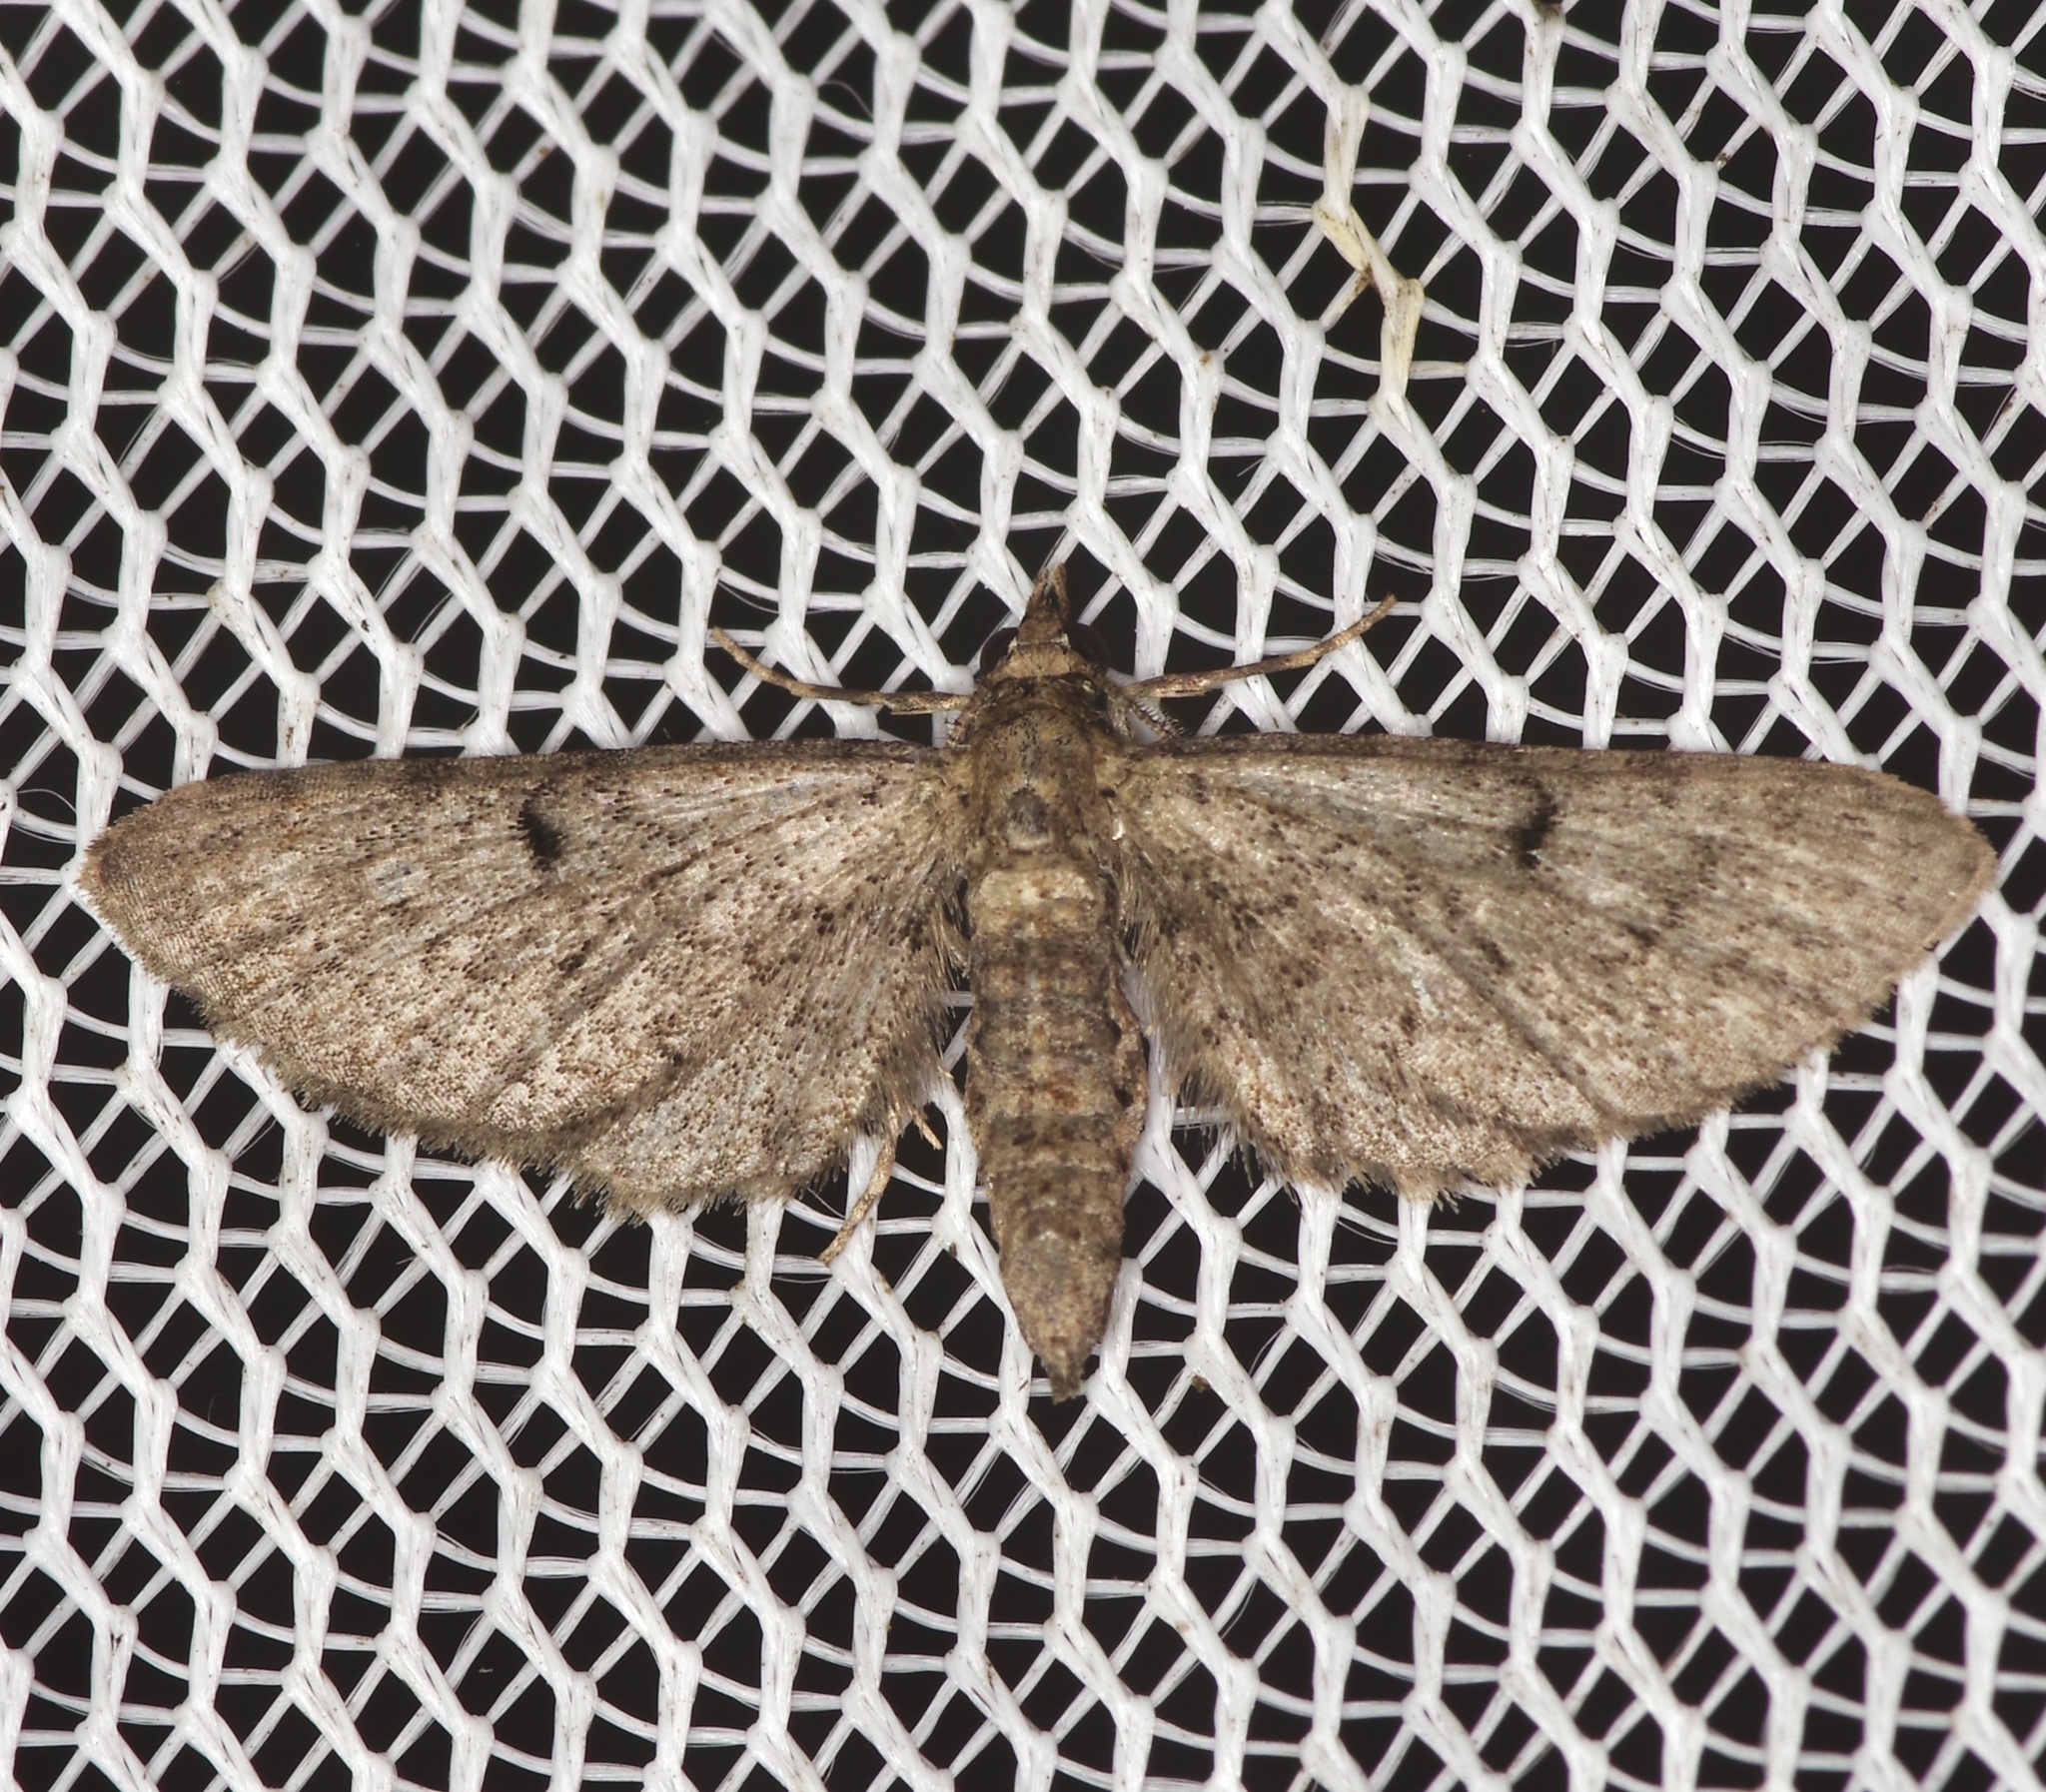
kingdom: Animalia
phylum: Arthropoda
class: Insecta
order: Lepidoptera
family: Geometridae
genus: Eupithecia
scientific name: Eupithecia miserulata
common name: Common eupithecia
